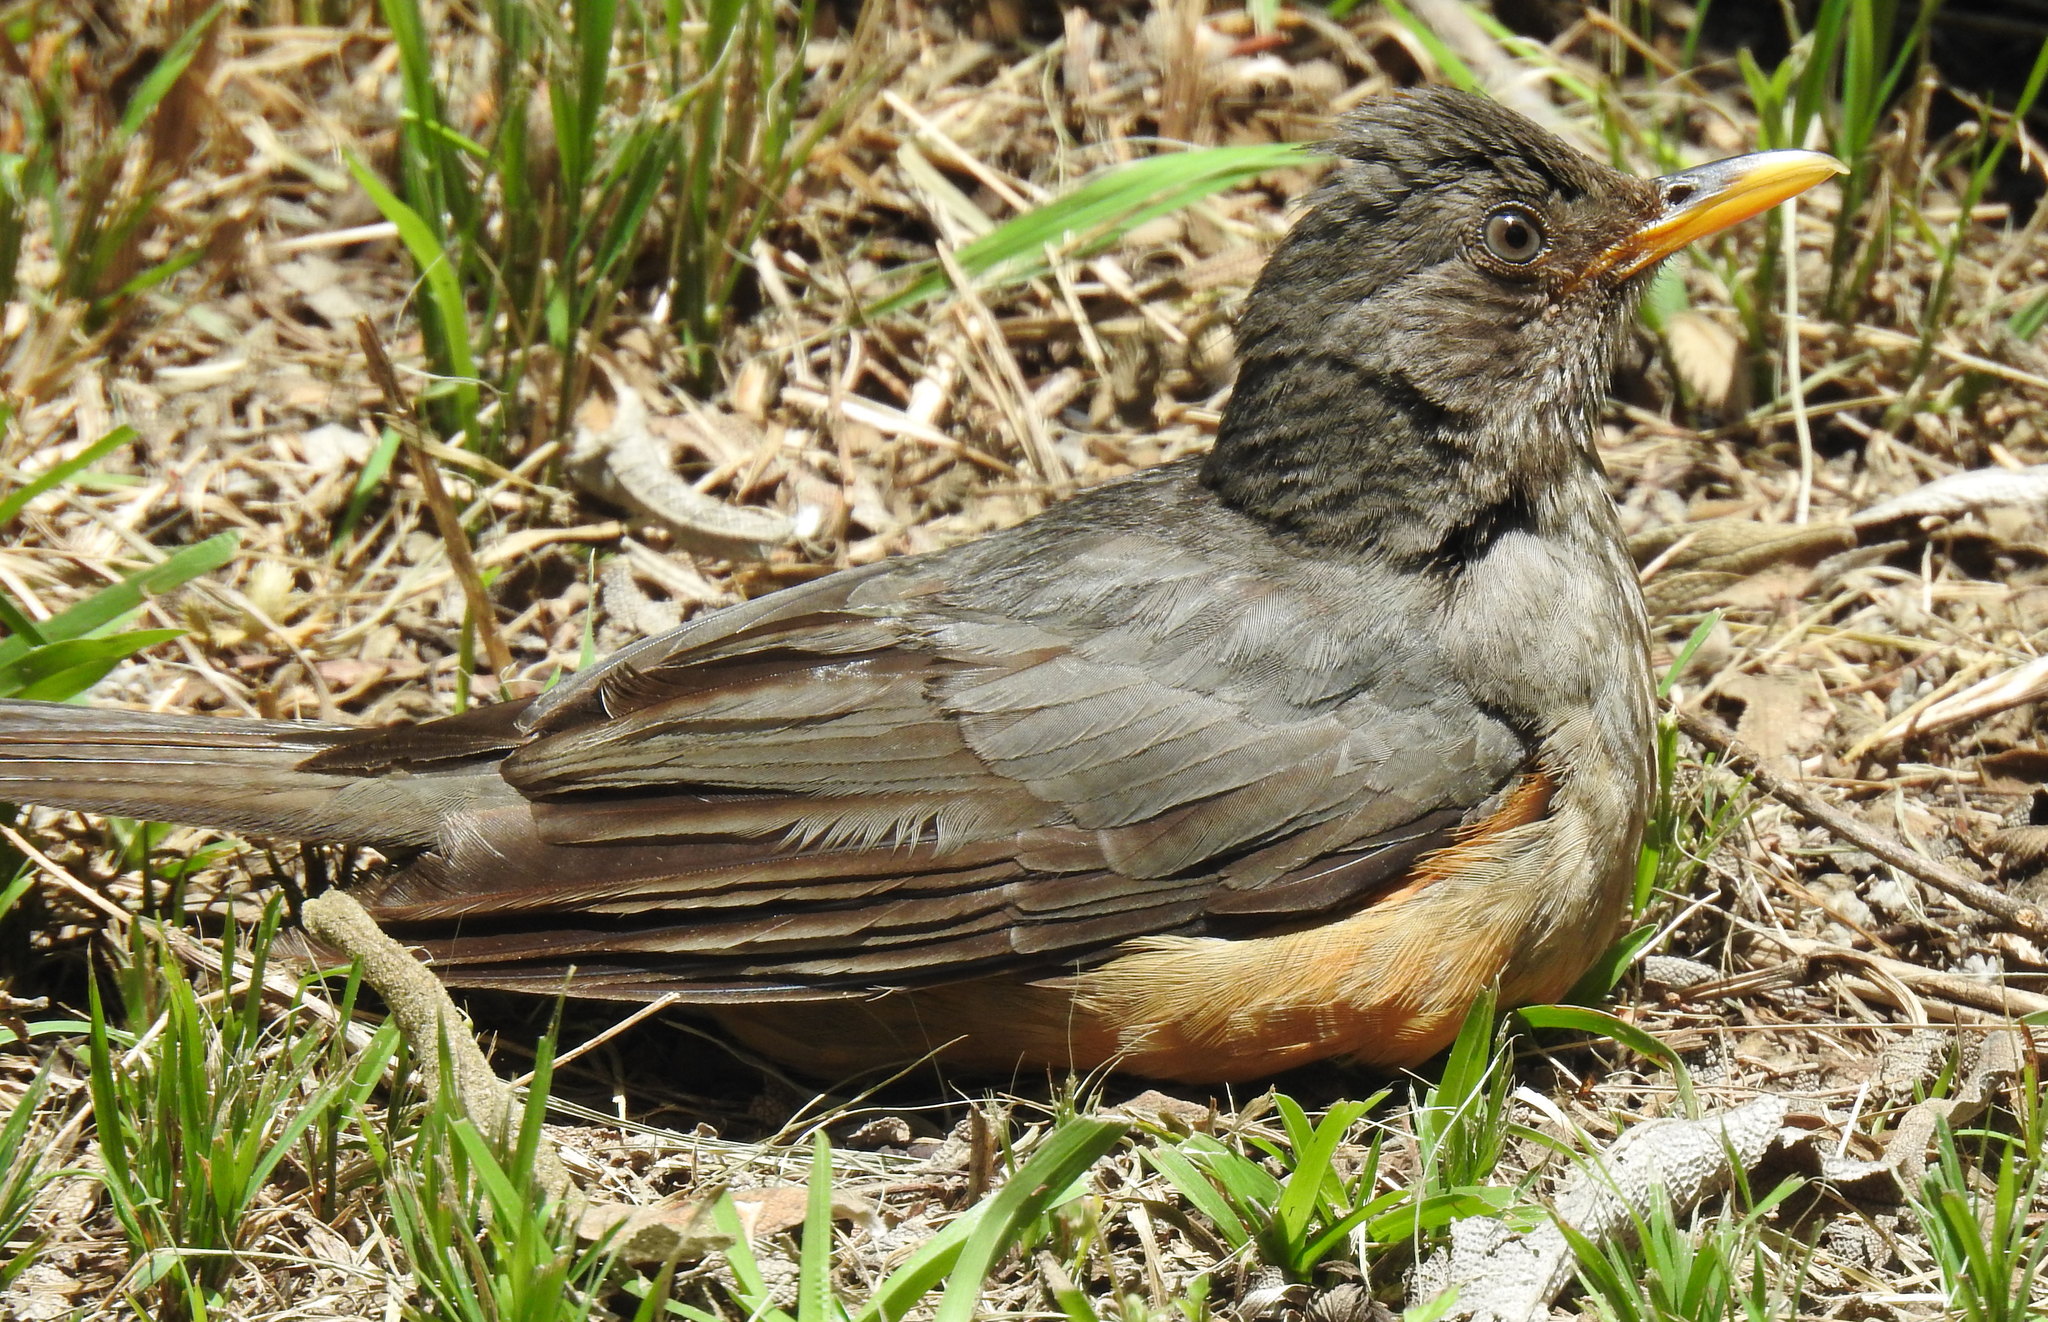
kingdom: Animalia
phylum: Chordata
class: Aves
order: Passeriformes
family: Turdidae
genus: Turdus
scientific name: Turdus olivaceus
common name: Olive thrush
